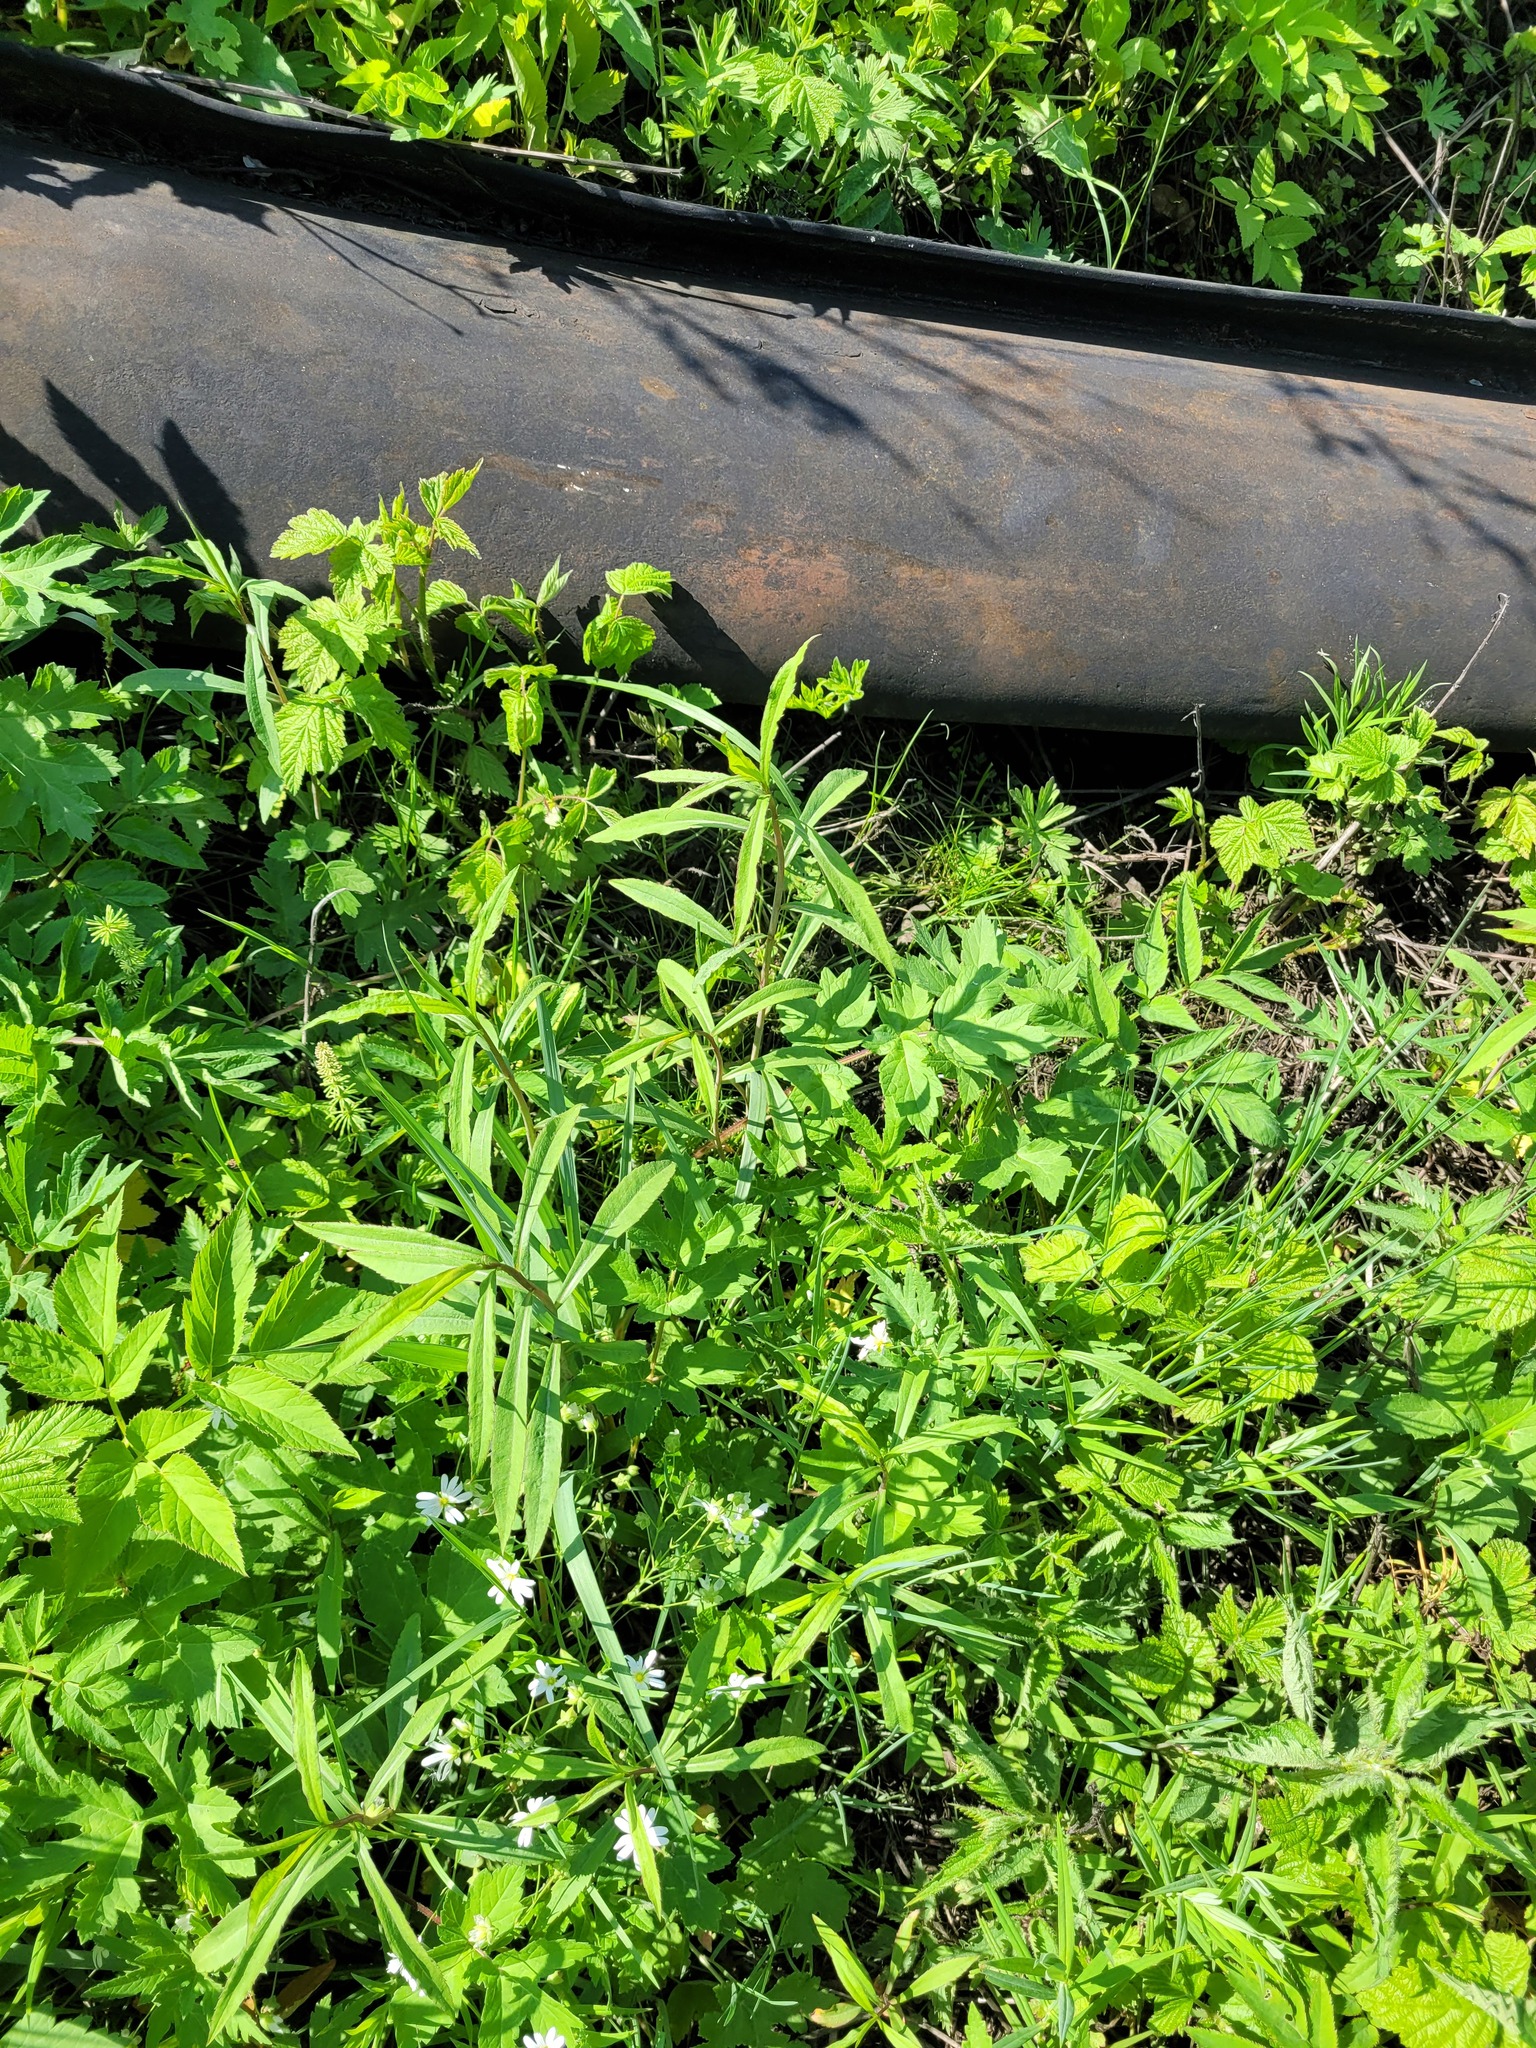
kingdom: Plantae
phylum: Tracheophyta
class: Magnoliopsida
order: Asterales
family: Asteraceae
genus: Solidago
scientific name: Solidago gigantea
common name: Giant goldenrod
